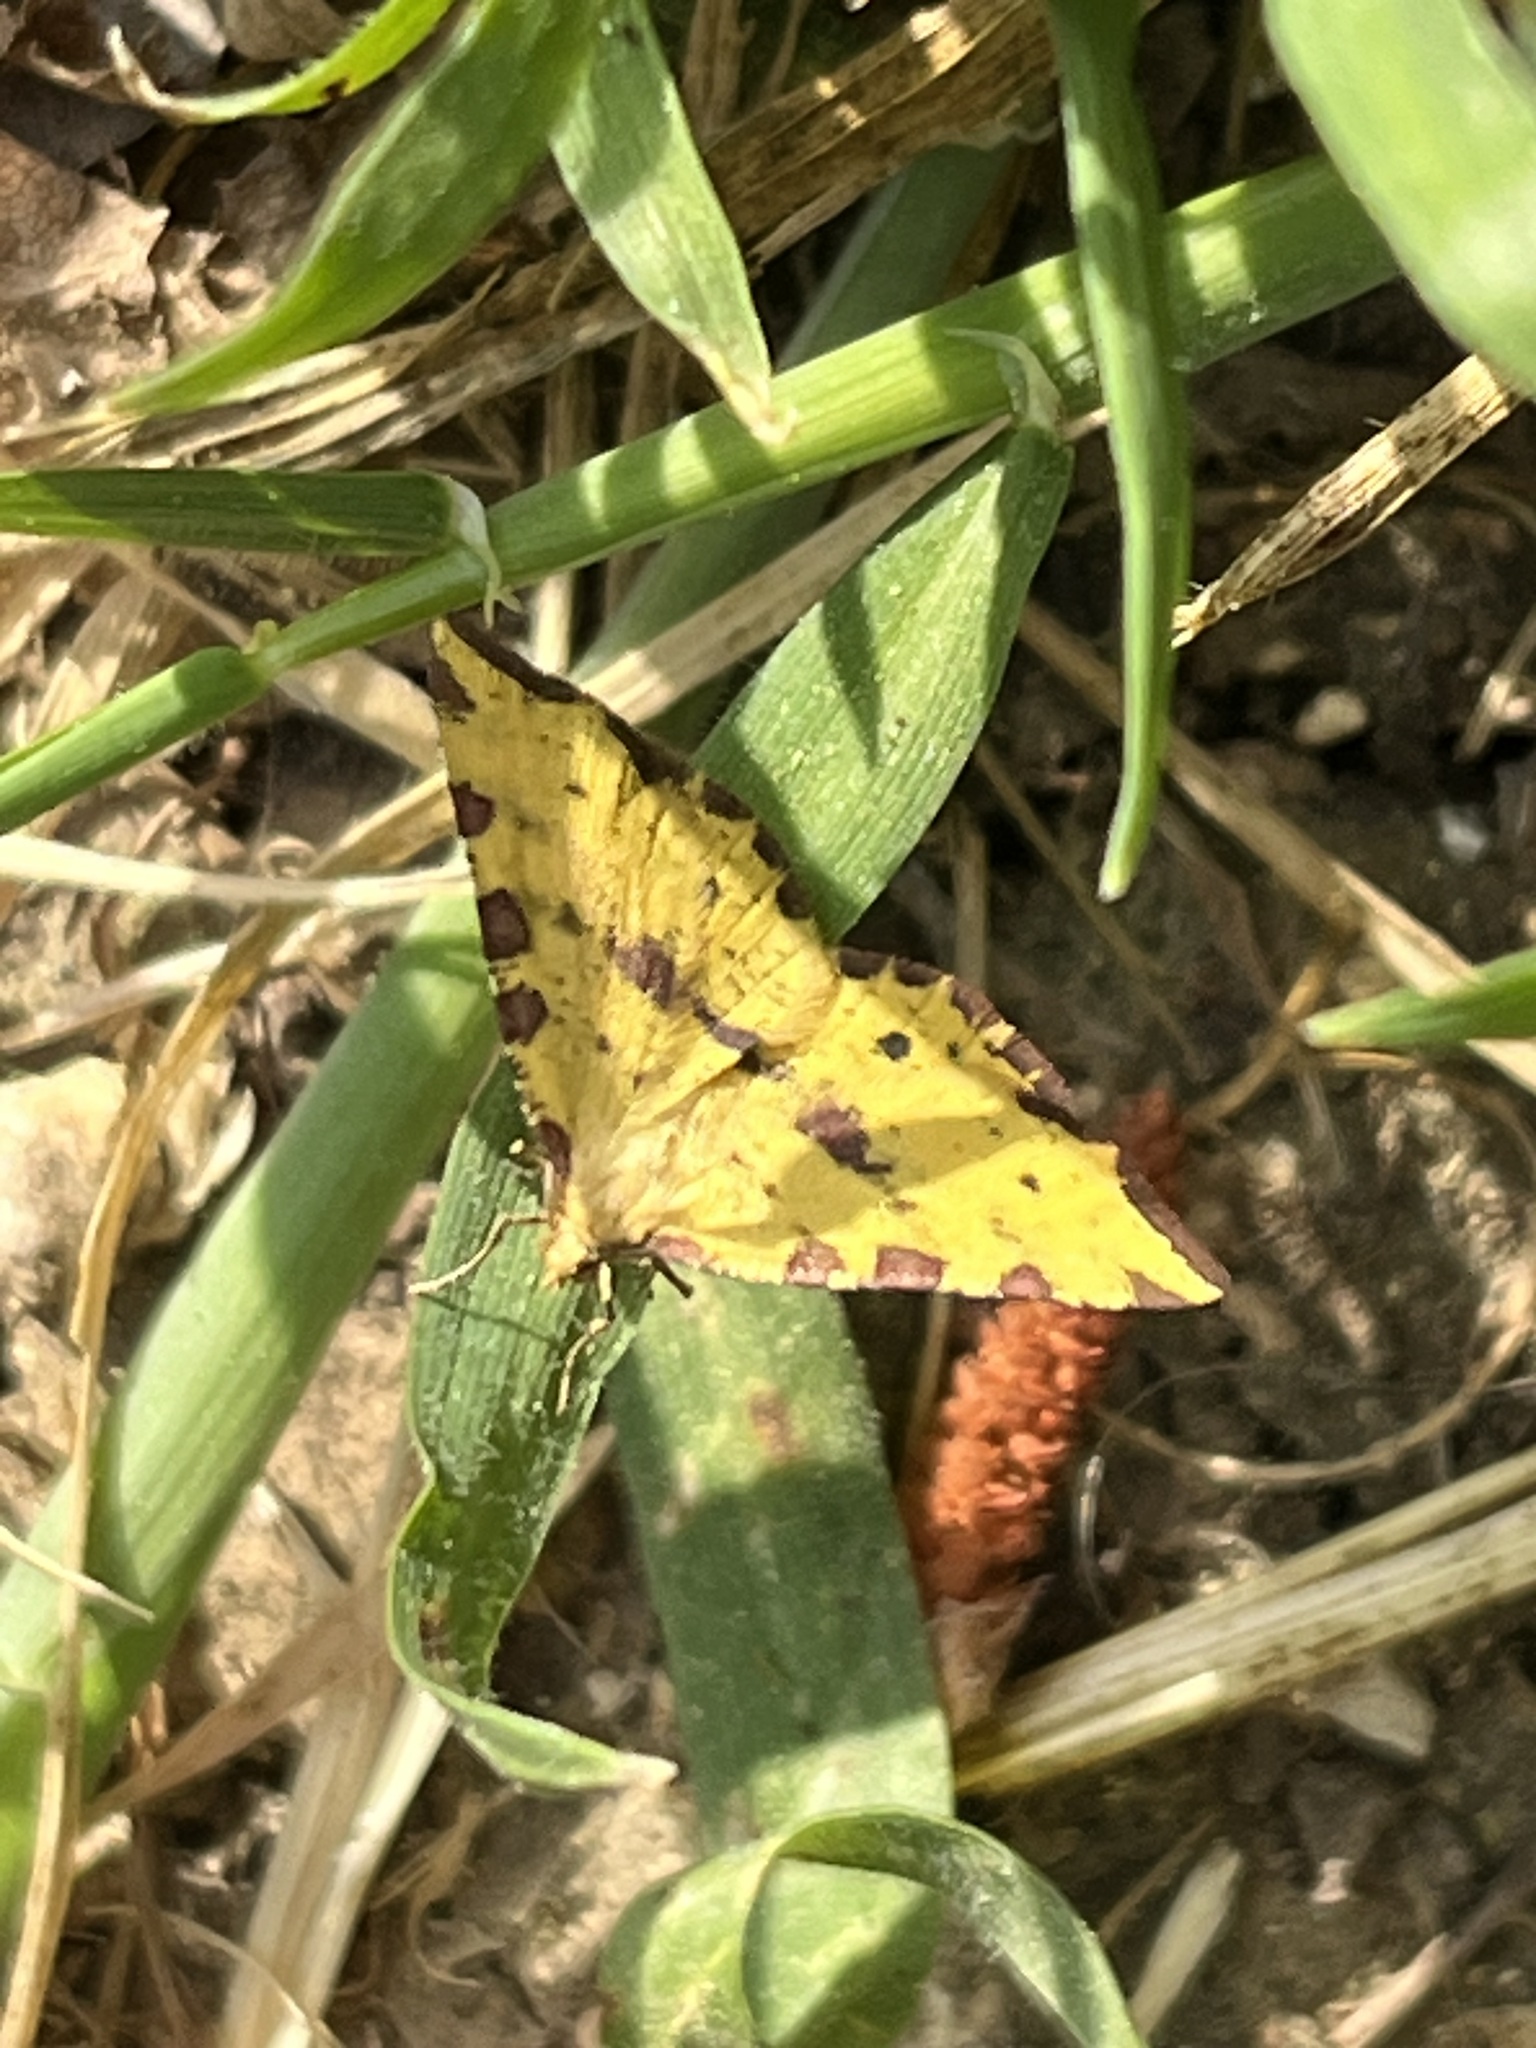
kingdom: Animalia
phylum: Arthropoda
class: Insecta
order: Lepidoptera
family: Geometridae
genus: Pseudopanthera
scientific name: Pseudopanthera syriacata
